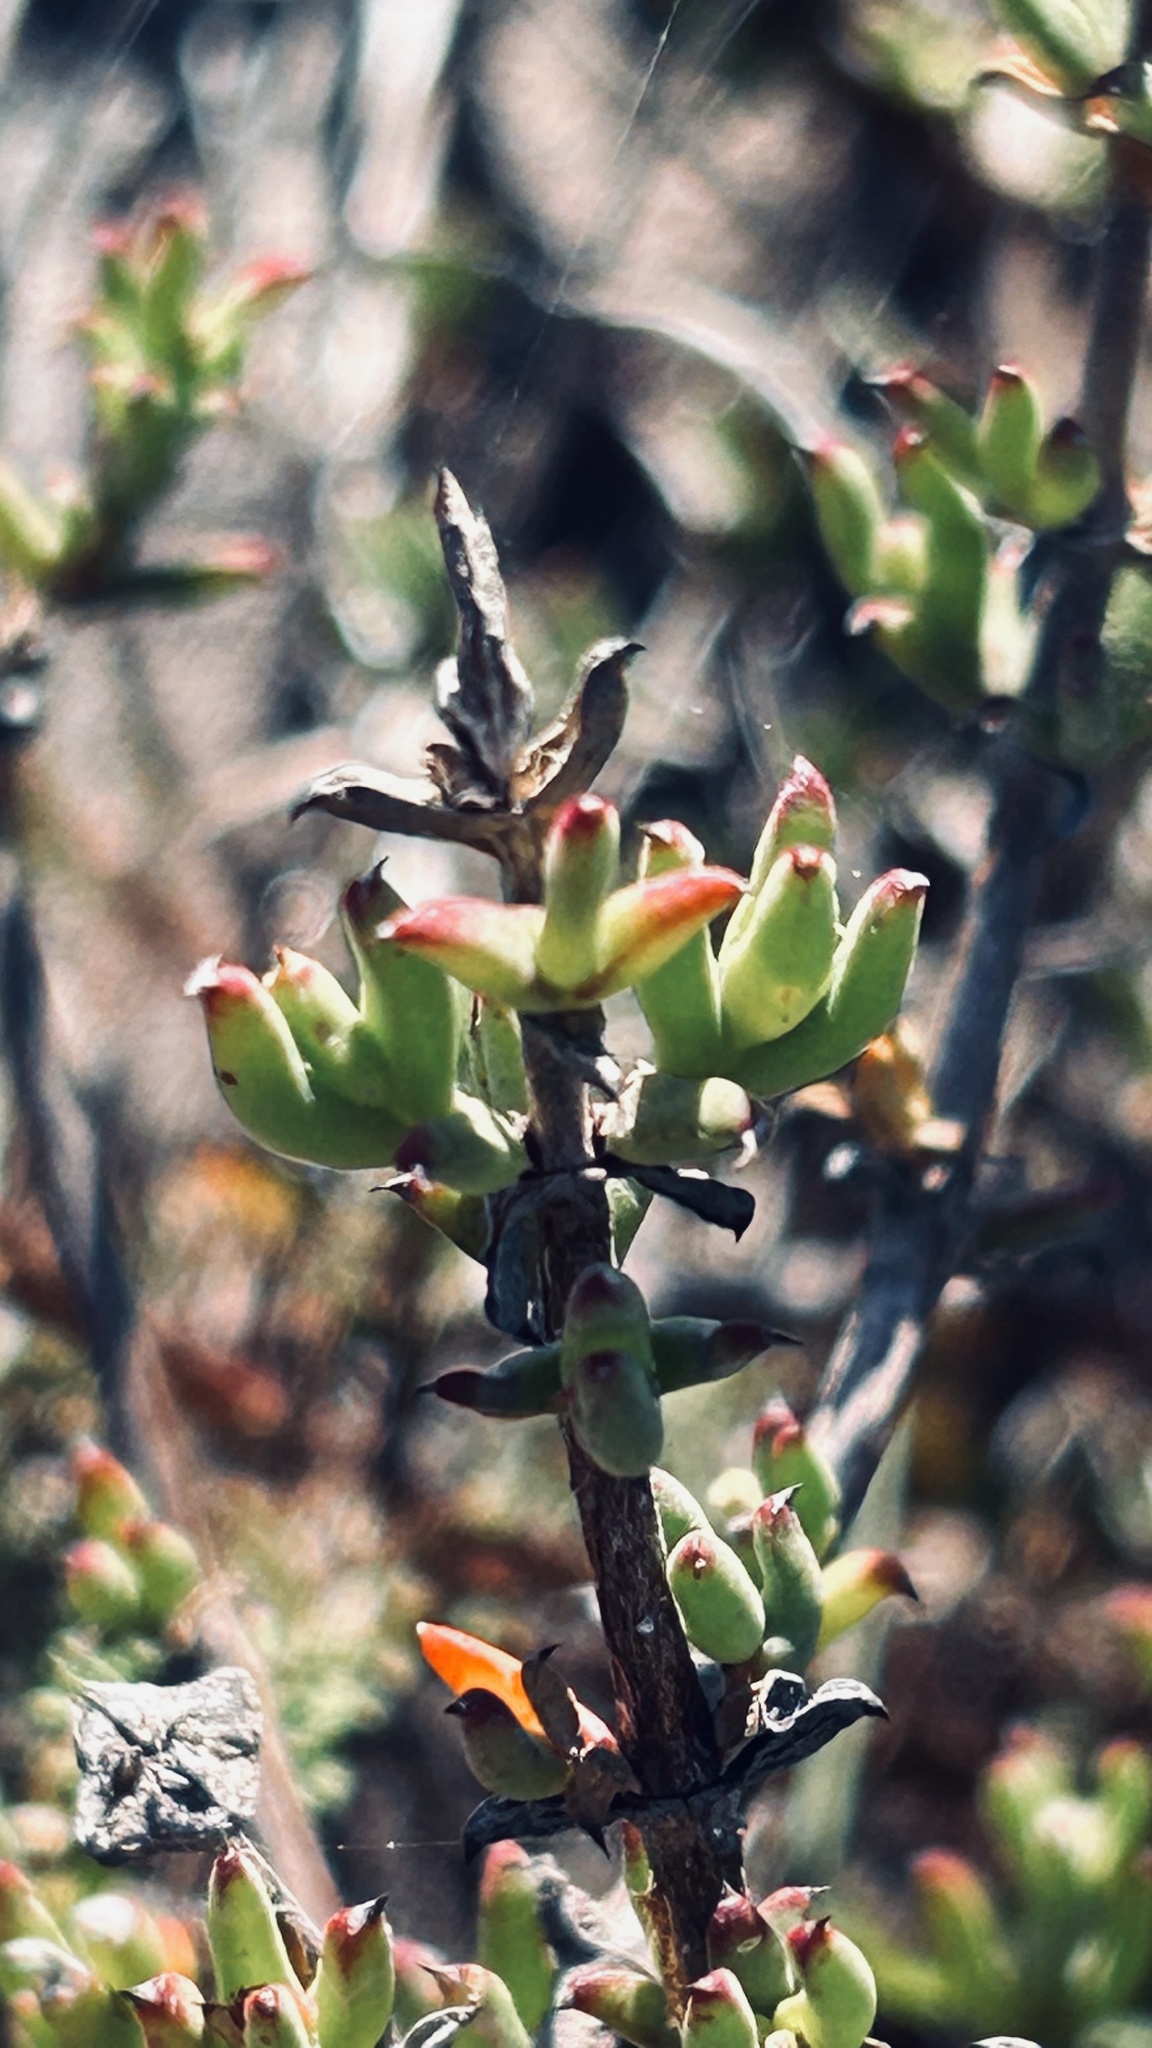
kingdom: Plantae
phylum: Tracheophyta
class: Magnoliopsida
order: Caryophyllales
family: Aizoaceae
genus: Delosperma
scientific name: Delosperma asperulum
